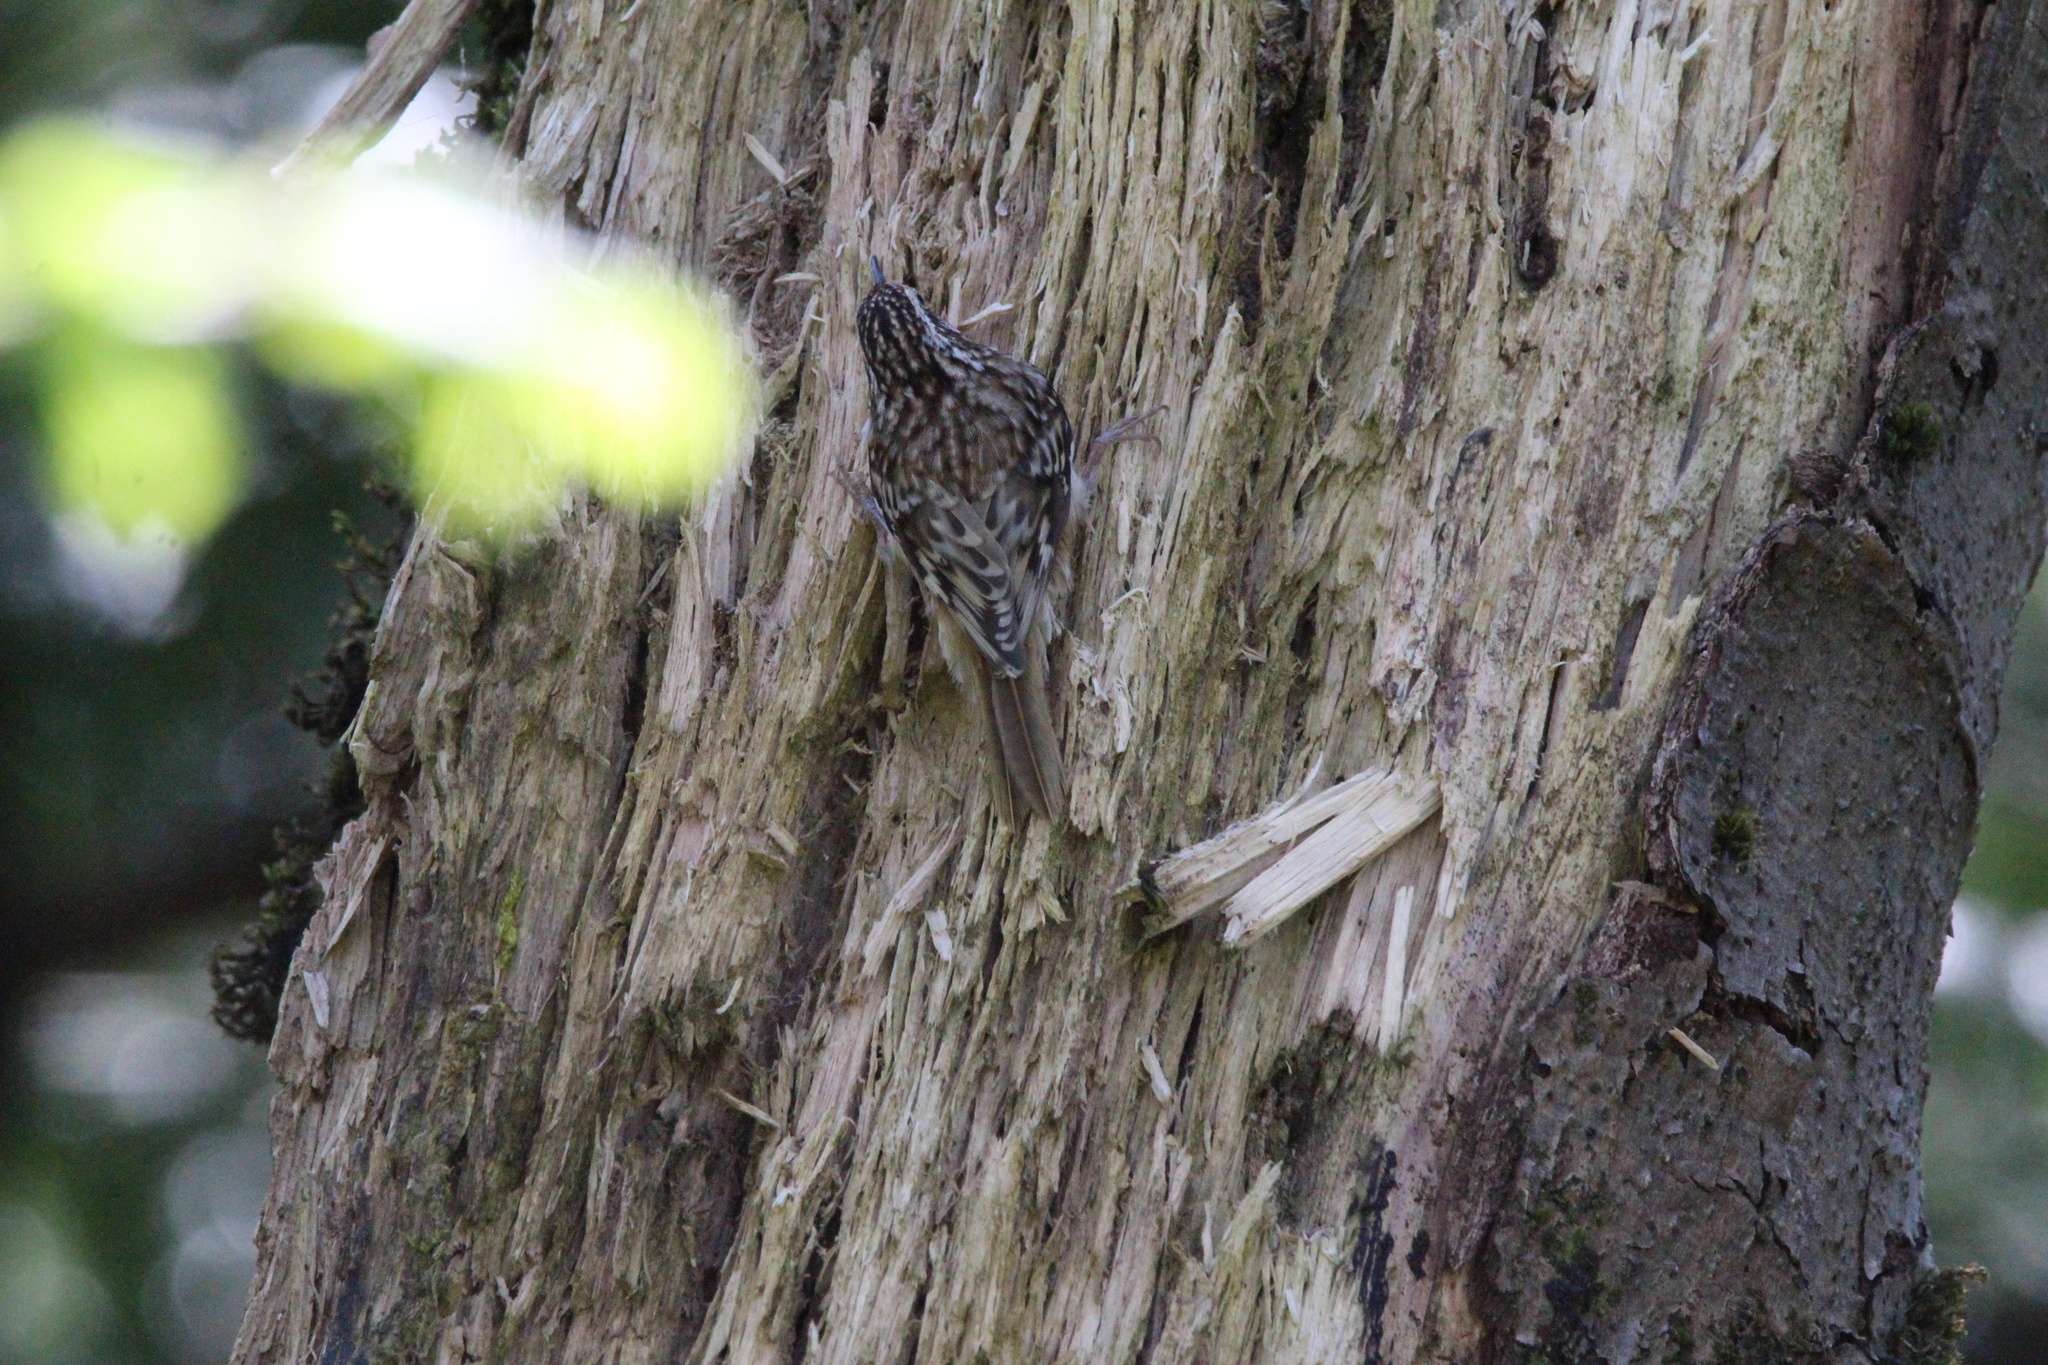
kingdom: Animalia
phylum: Chordata
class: Aves
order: Passeriformes
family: Certhiidae
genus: Certhia
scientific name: Certhia americana
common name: Brown creeper
